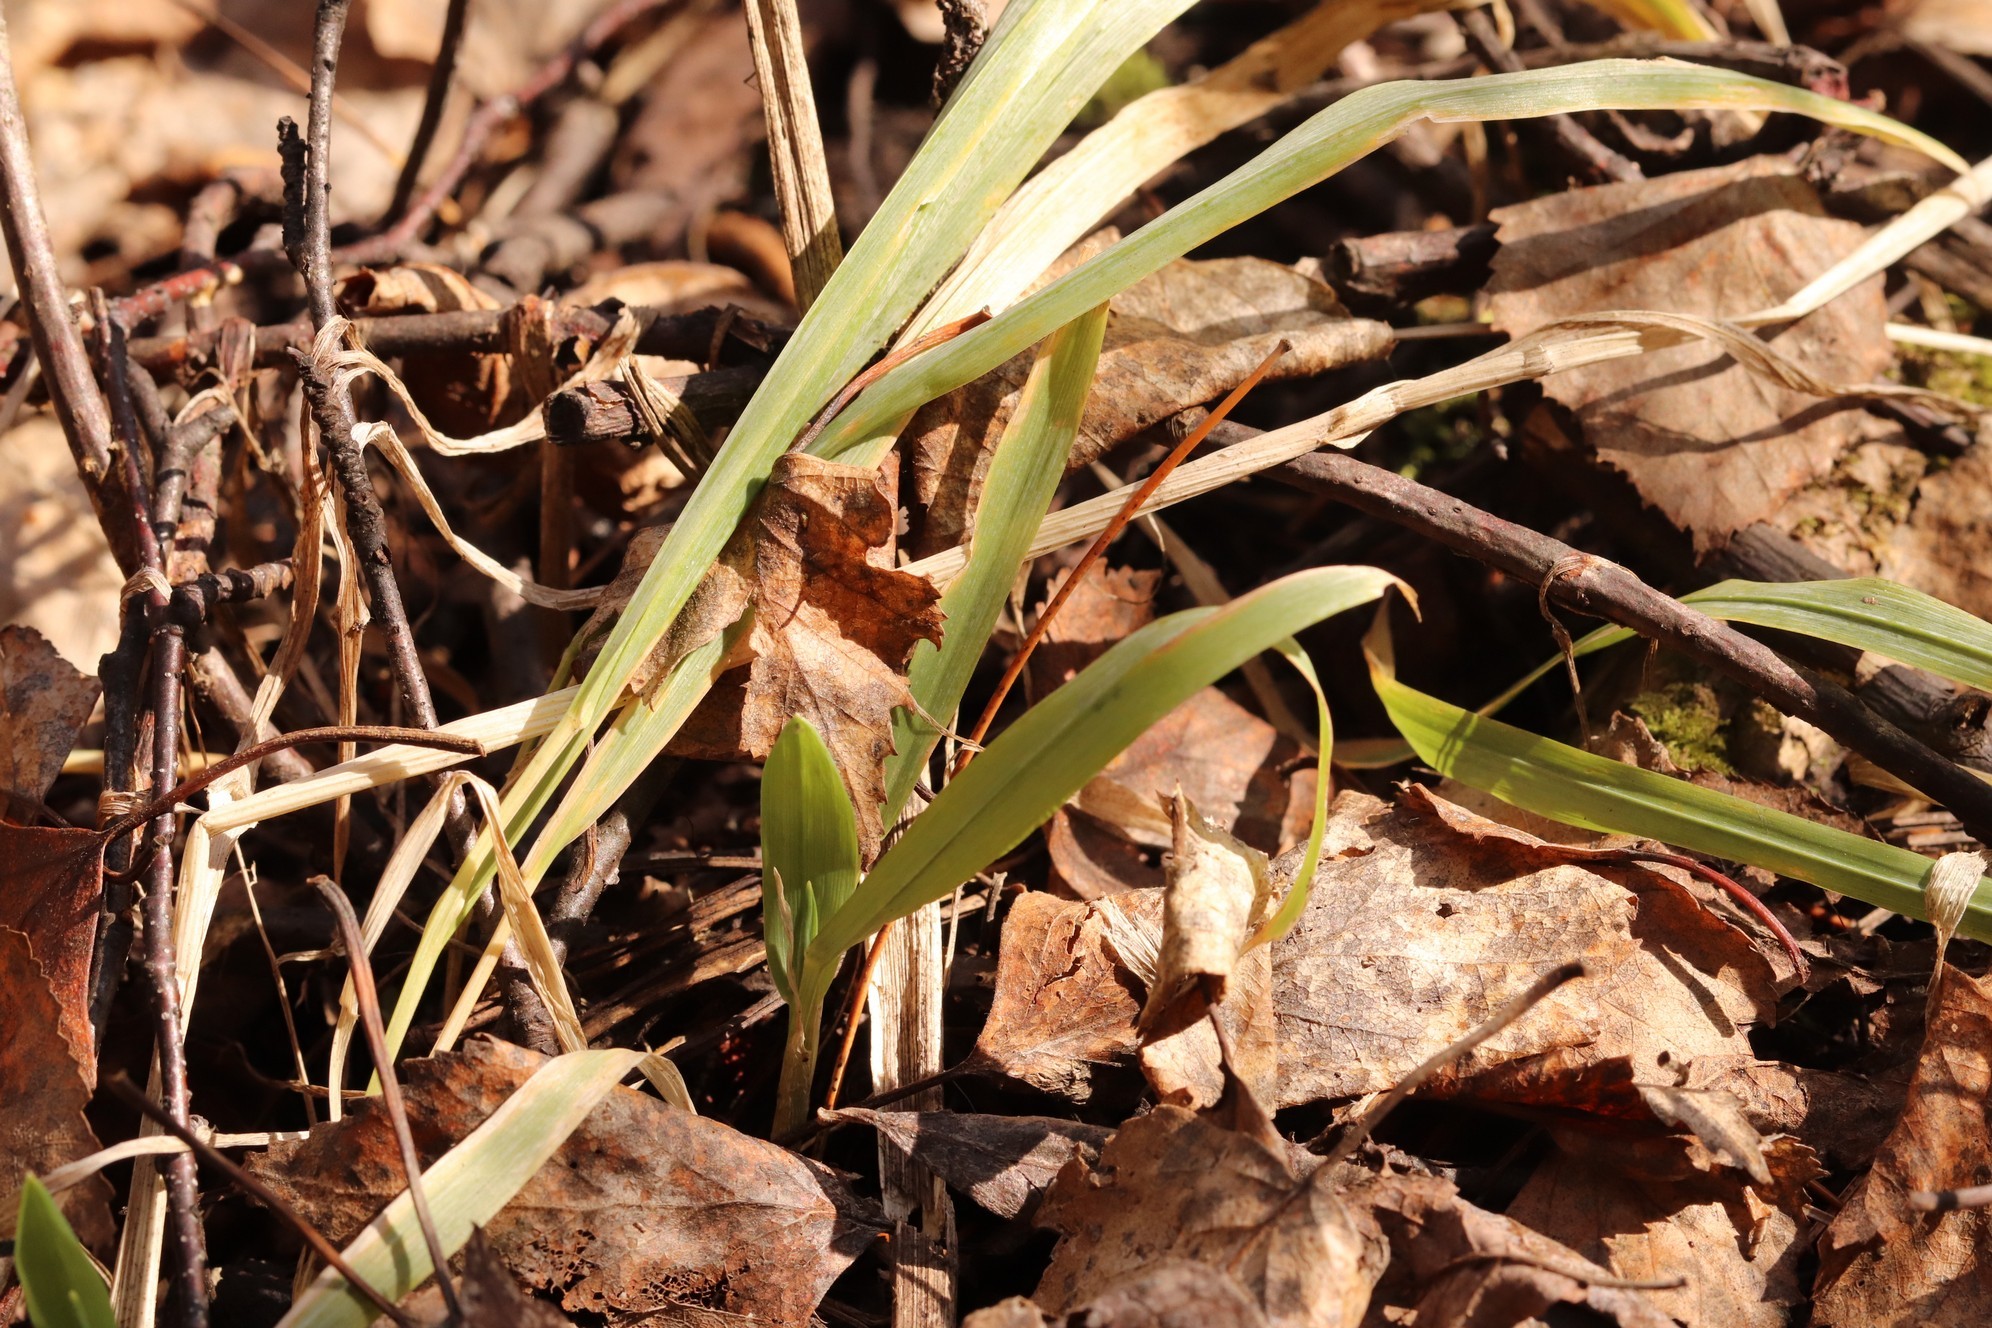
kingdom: Plantae
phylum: Tracheophyta
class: Liliopsida
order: Poales
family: Juncaceae
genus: Luzula
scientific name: Luzula pilosa
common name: Hairy wood-rush
